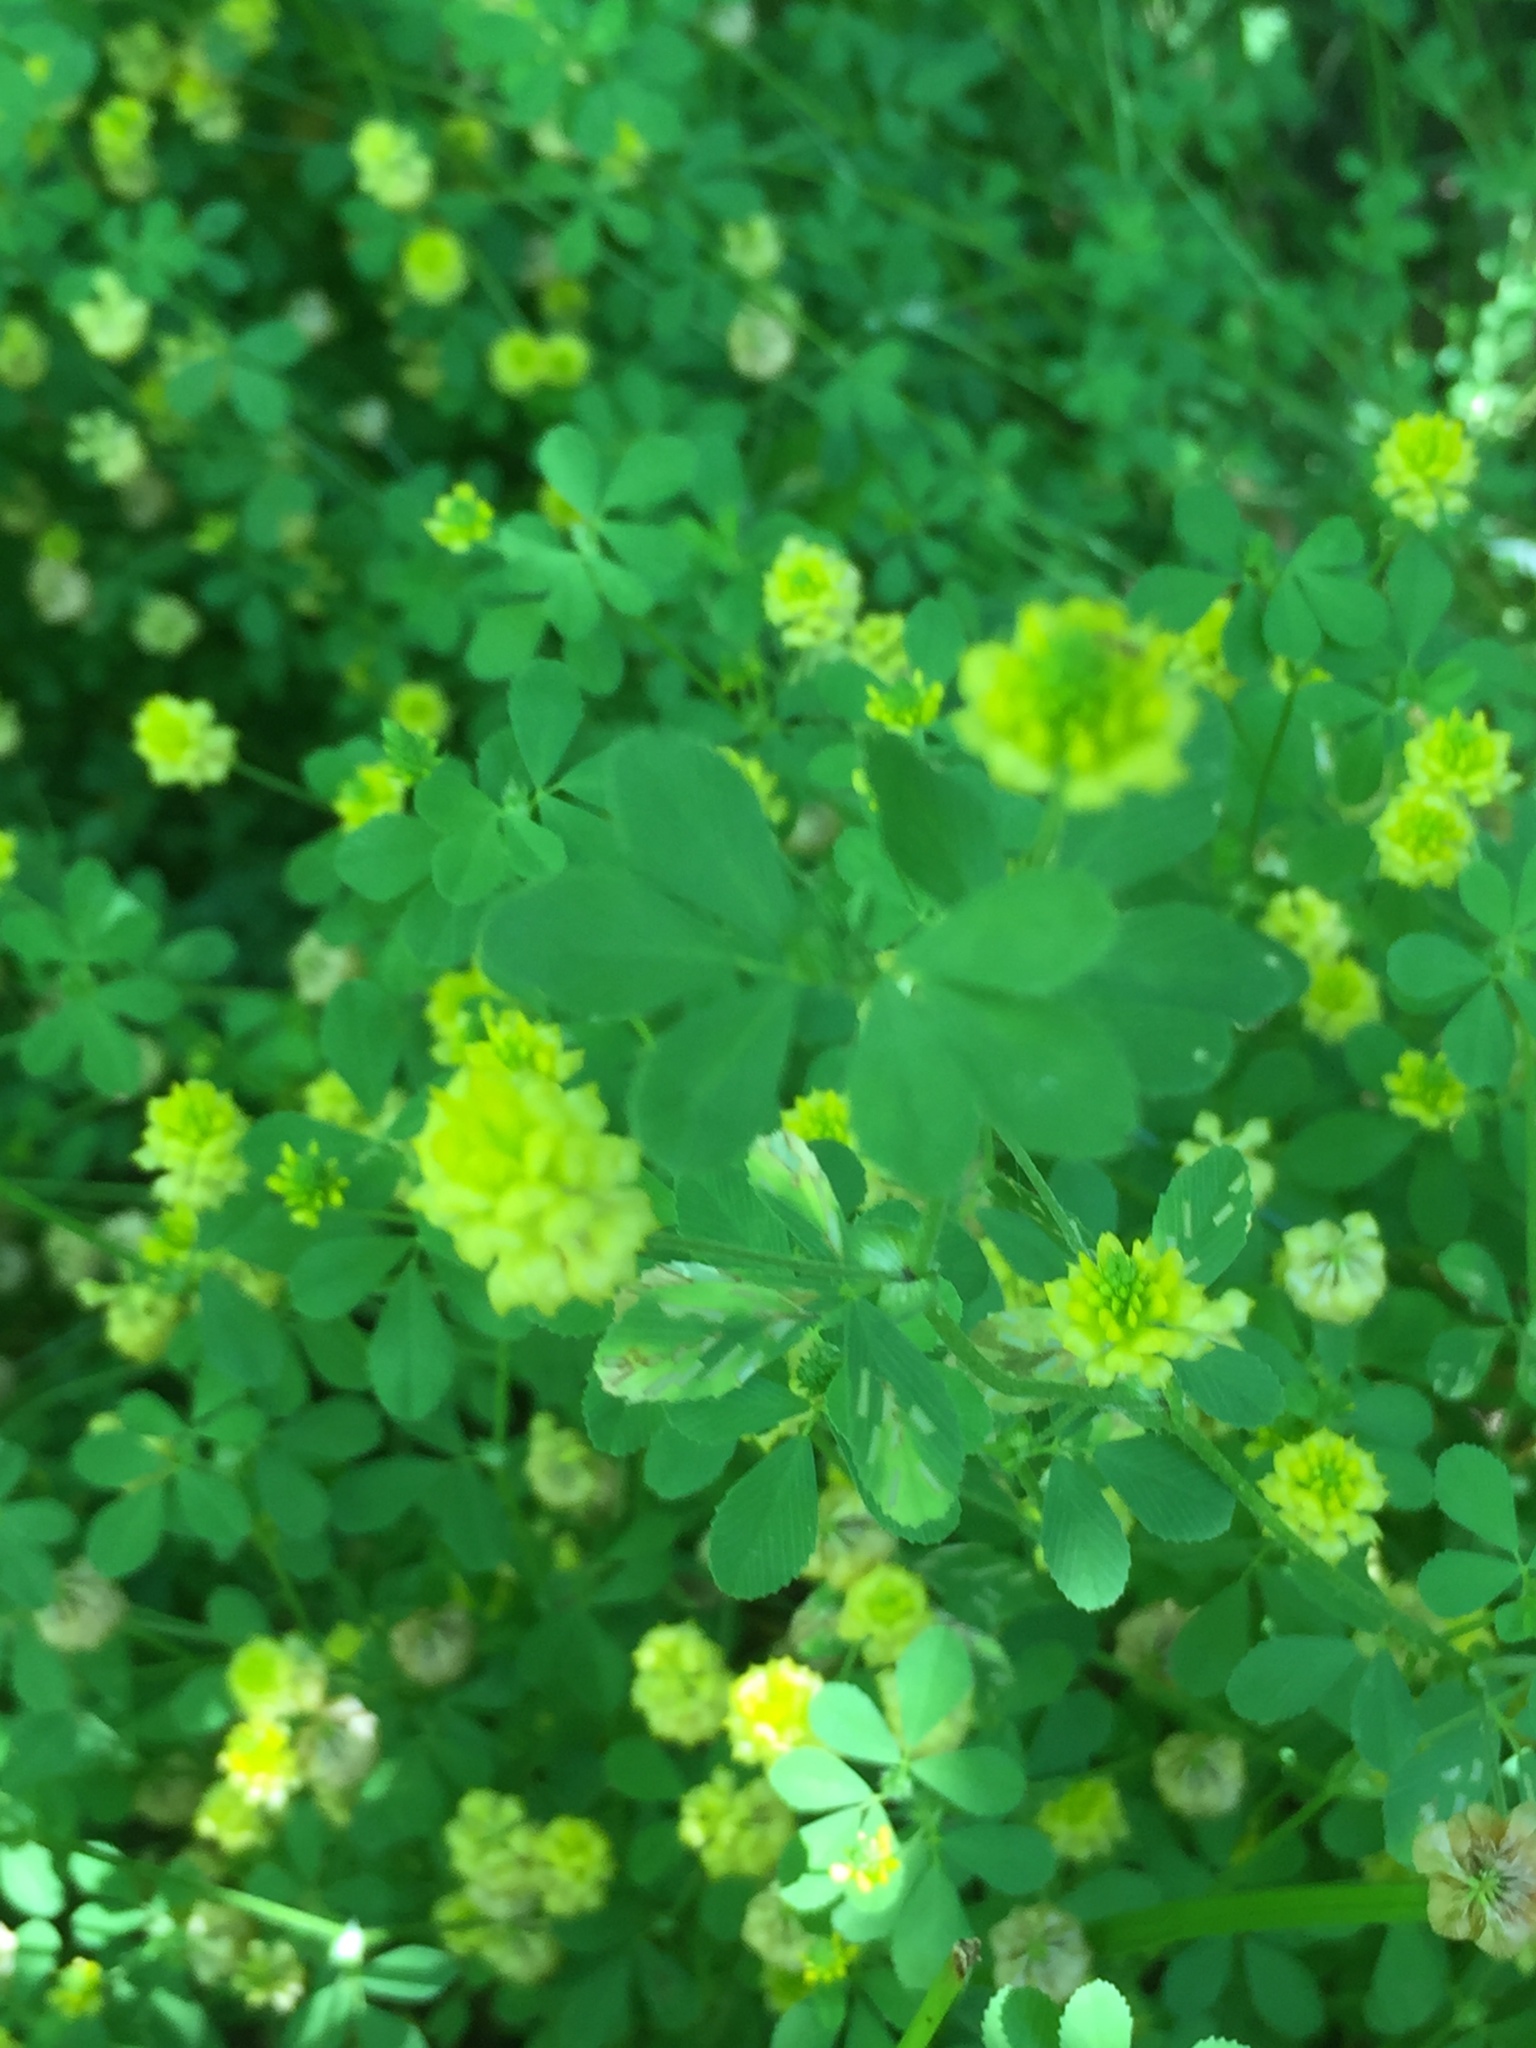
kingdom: Plantae
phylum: Tracheophyta
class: Magnoliopsida
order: Fabales
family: Fabaceae
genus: Trifolium
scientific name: Trifolium campestre
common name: Field clover
